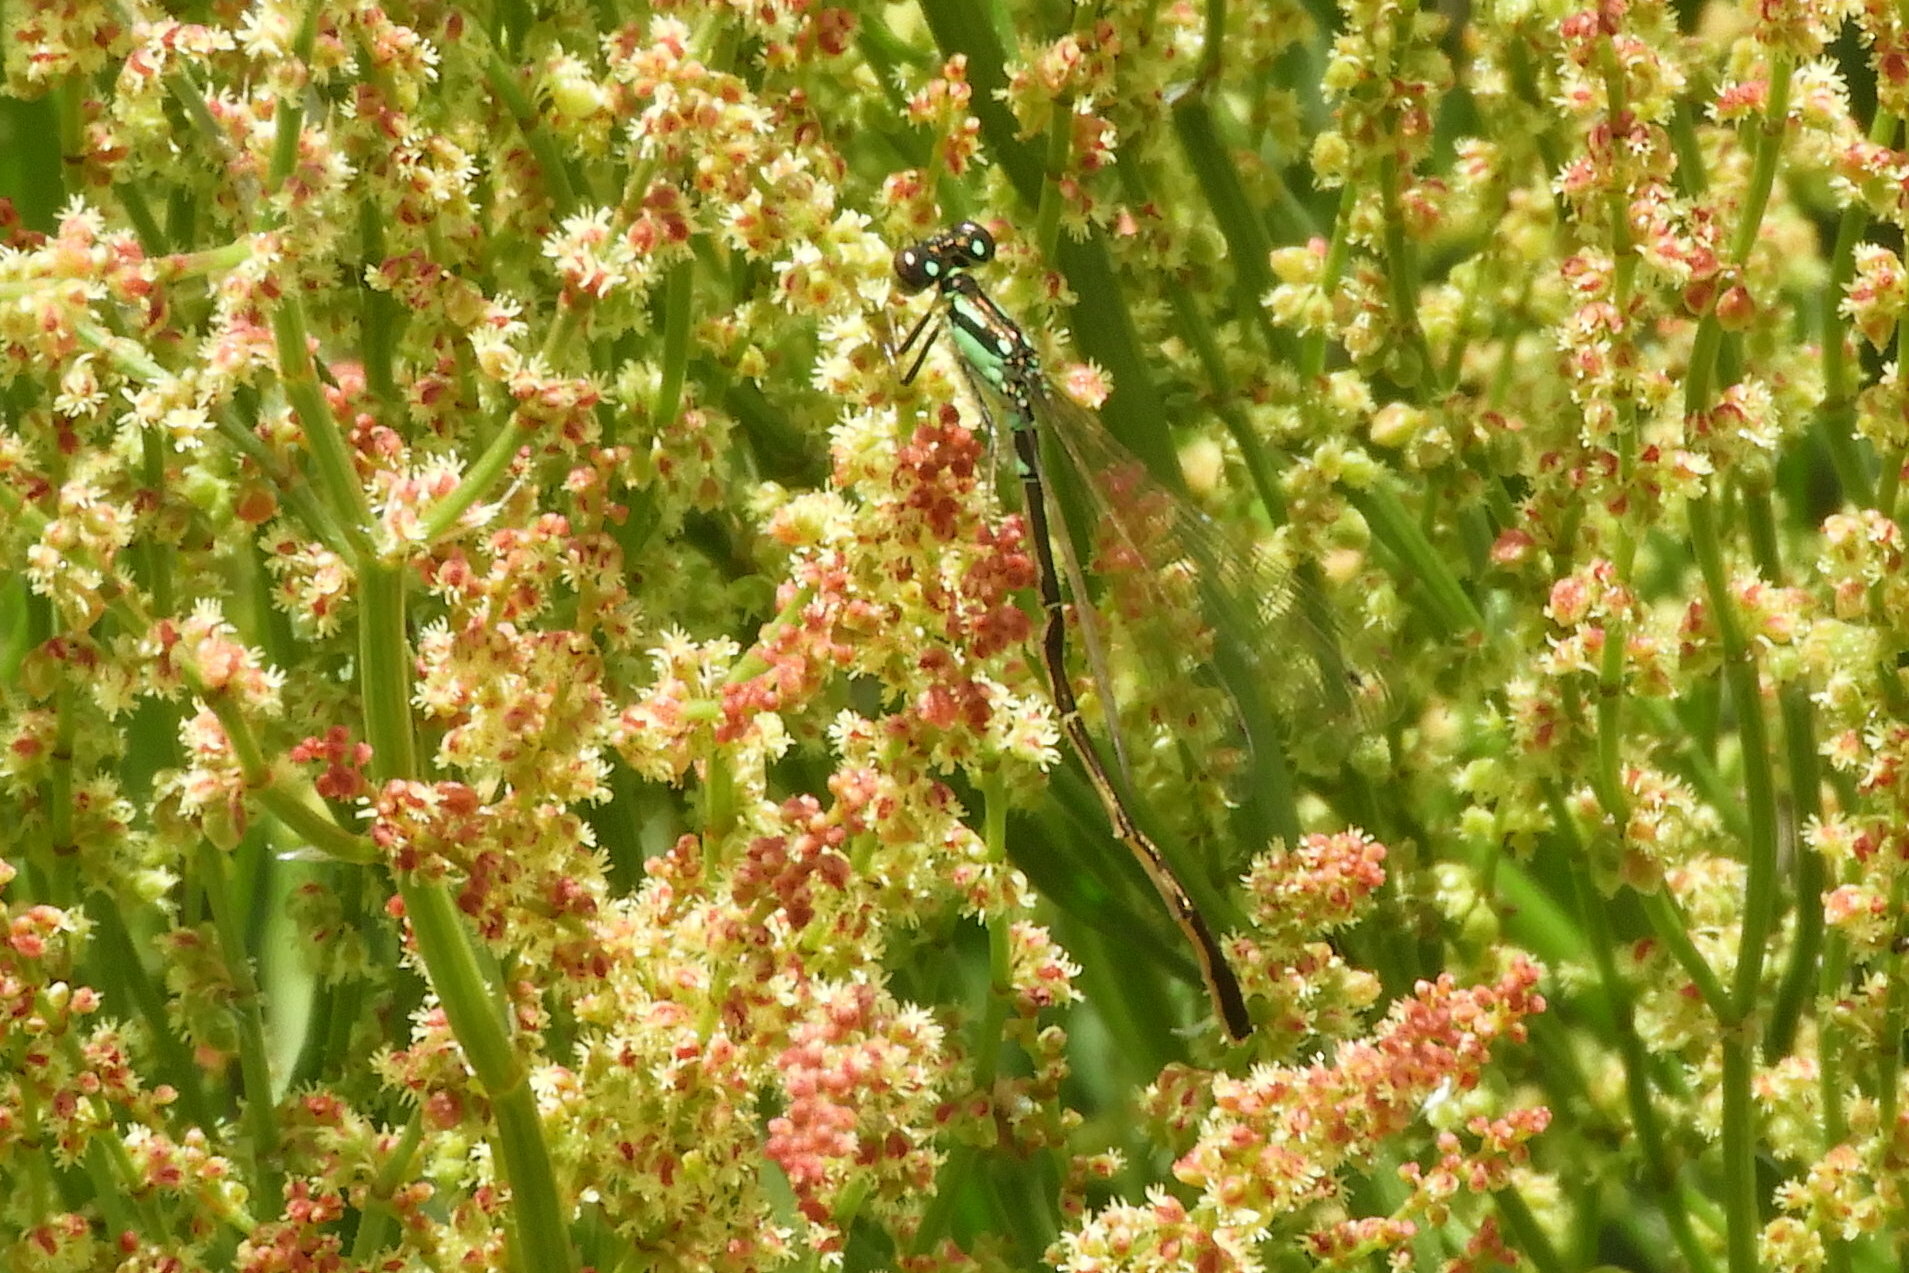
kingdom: Animalia
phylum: Arthropoda
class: Insecta
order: Odonata
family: Coenagrionidae
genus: Ischnura
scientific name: Ischnura posita
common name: Fragile forktail
